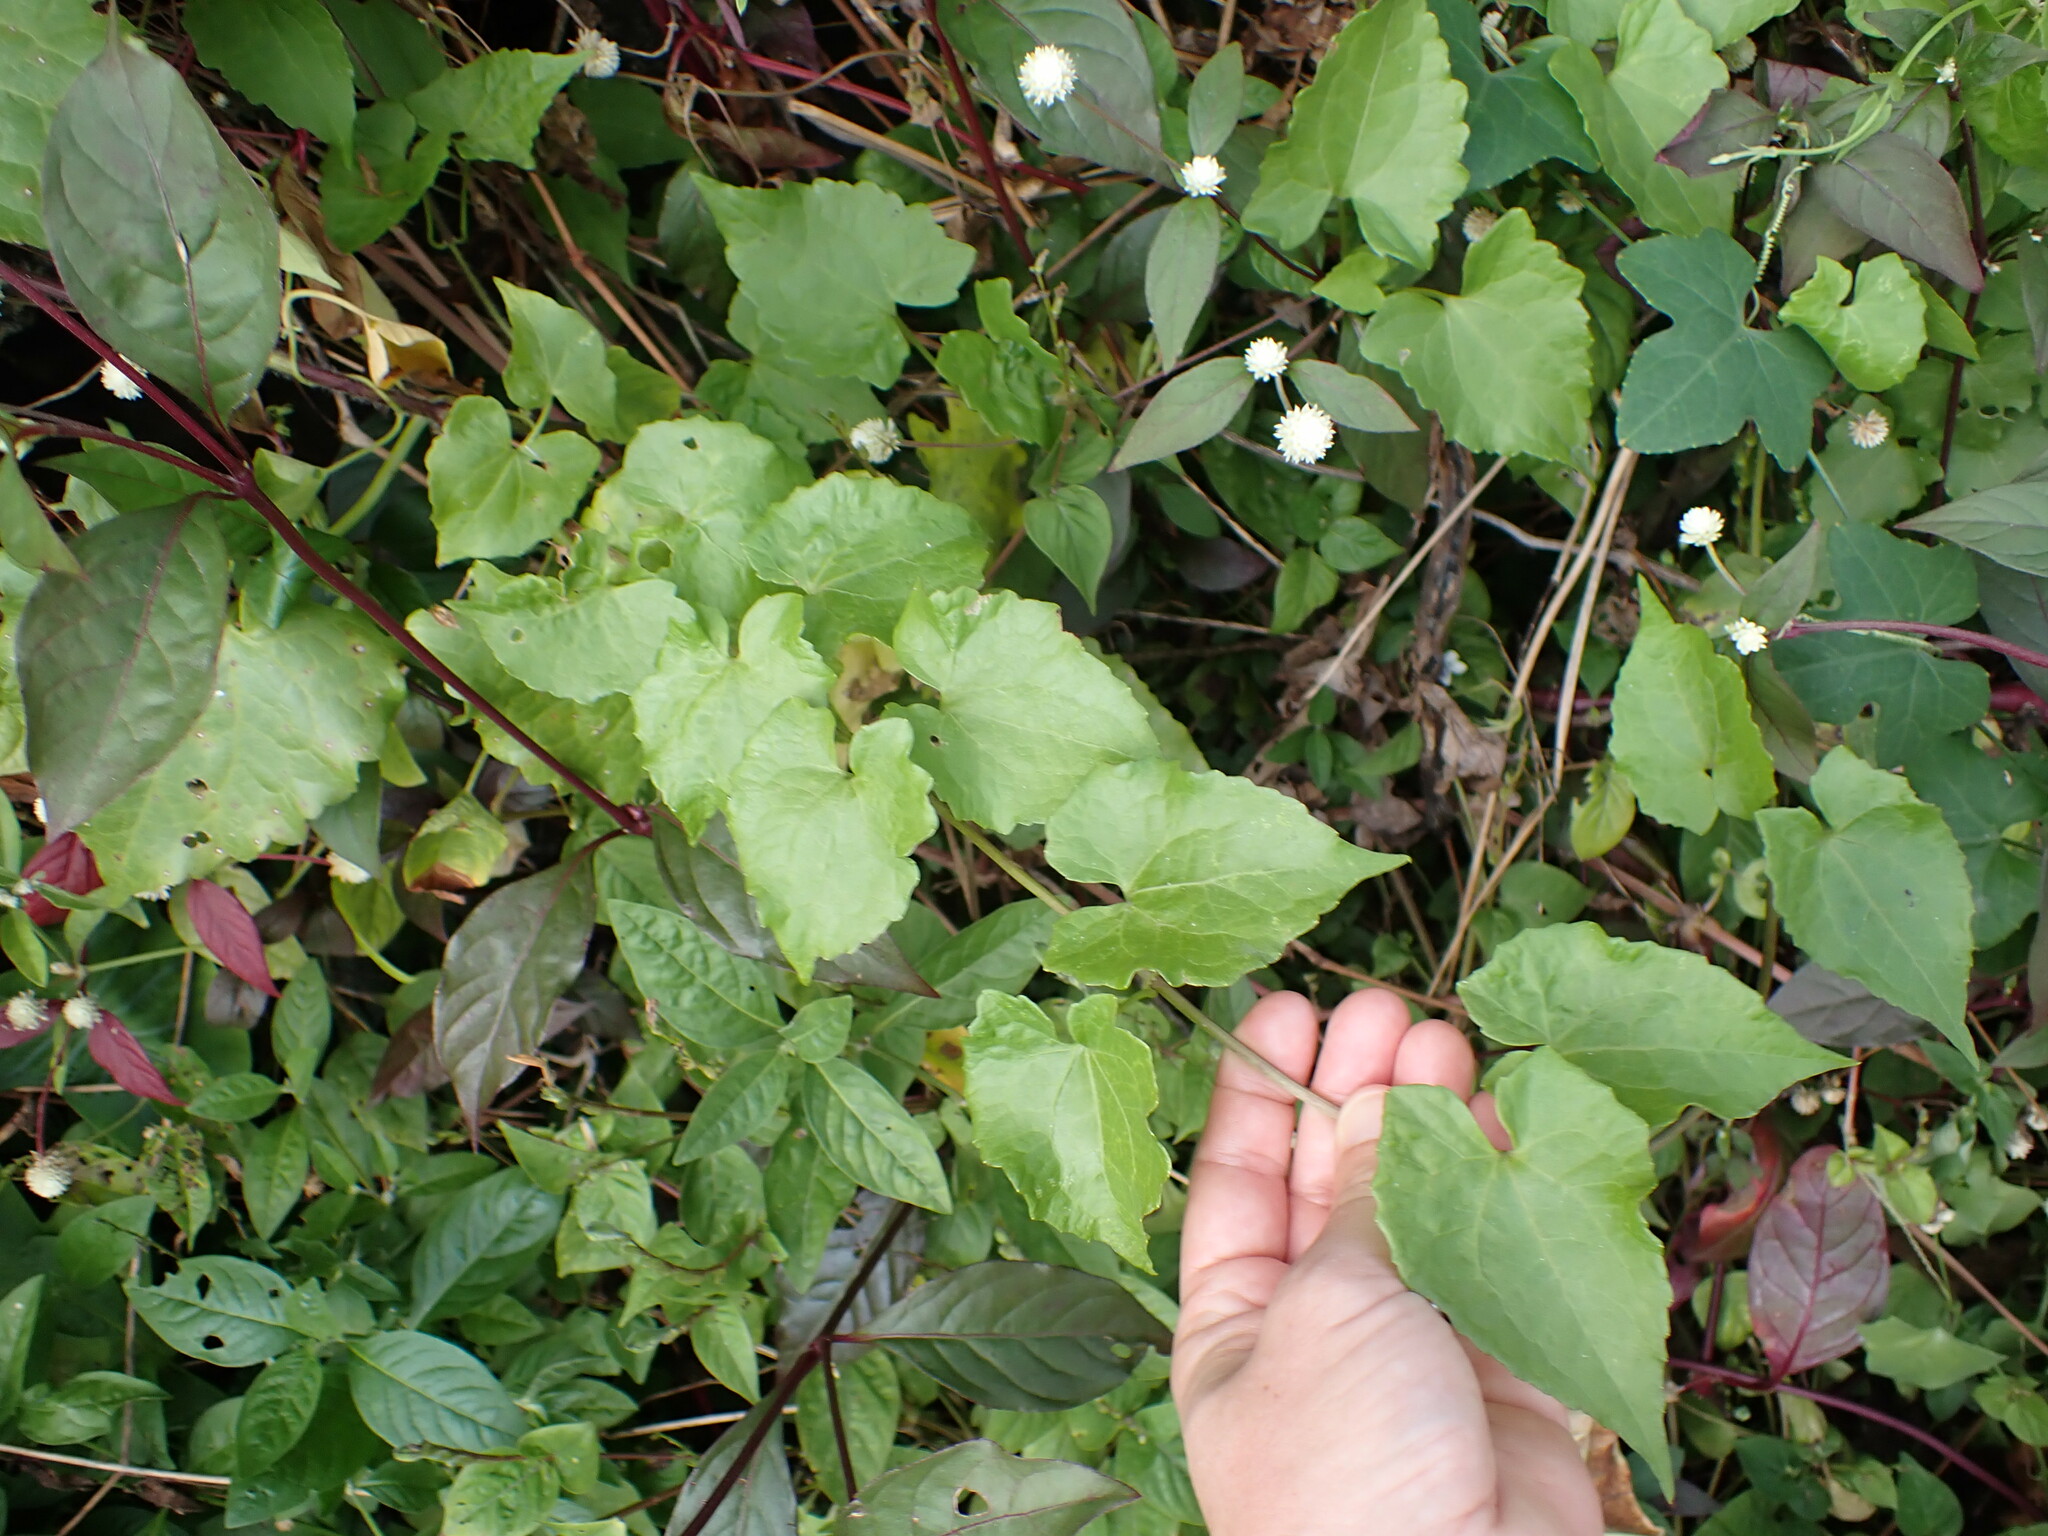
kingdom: Plantae
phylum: Tracheophyta
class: Magnoliopsida
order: Asterales
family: Asteraceae
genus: Mikania
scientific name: Mikania micrantha
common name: Mile-a-minute
